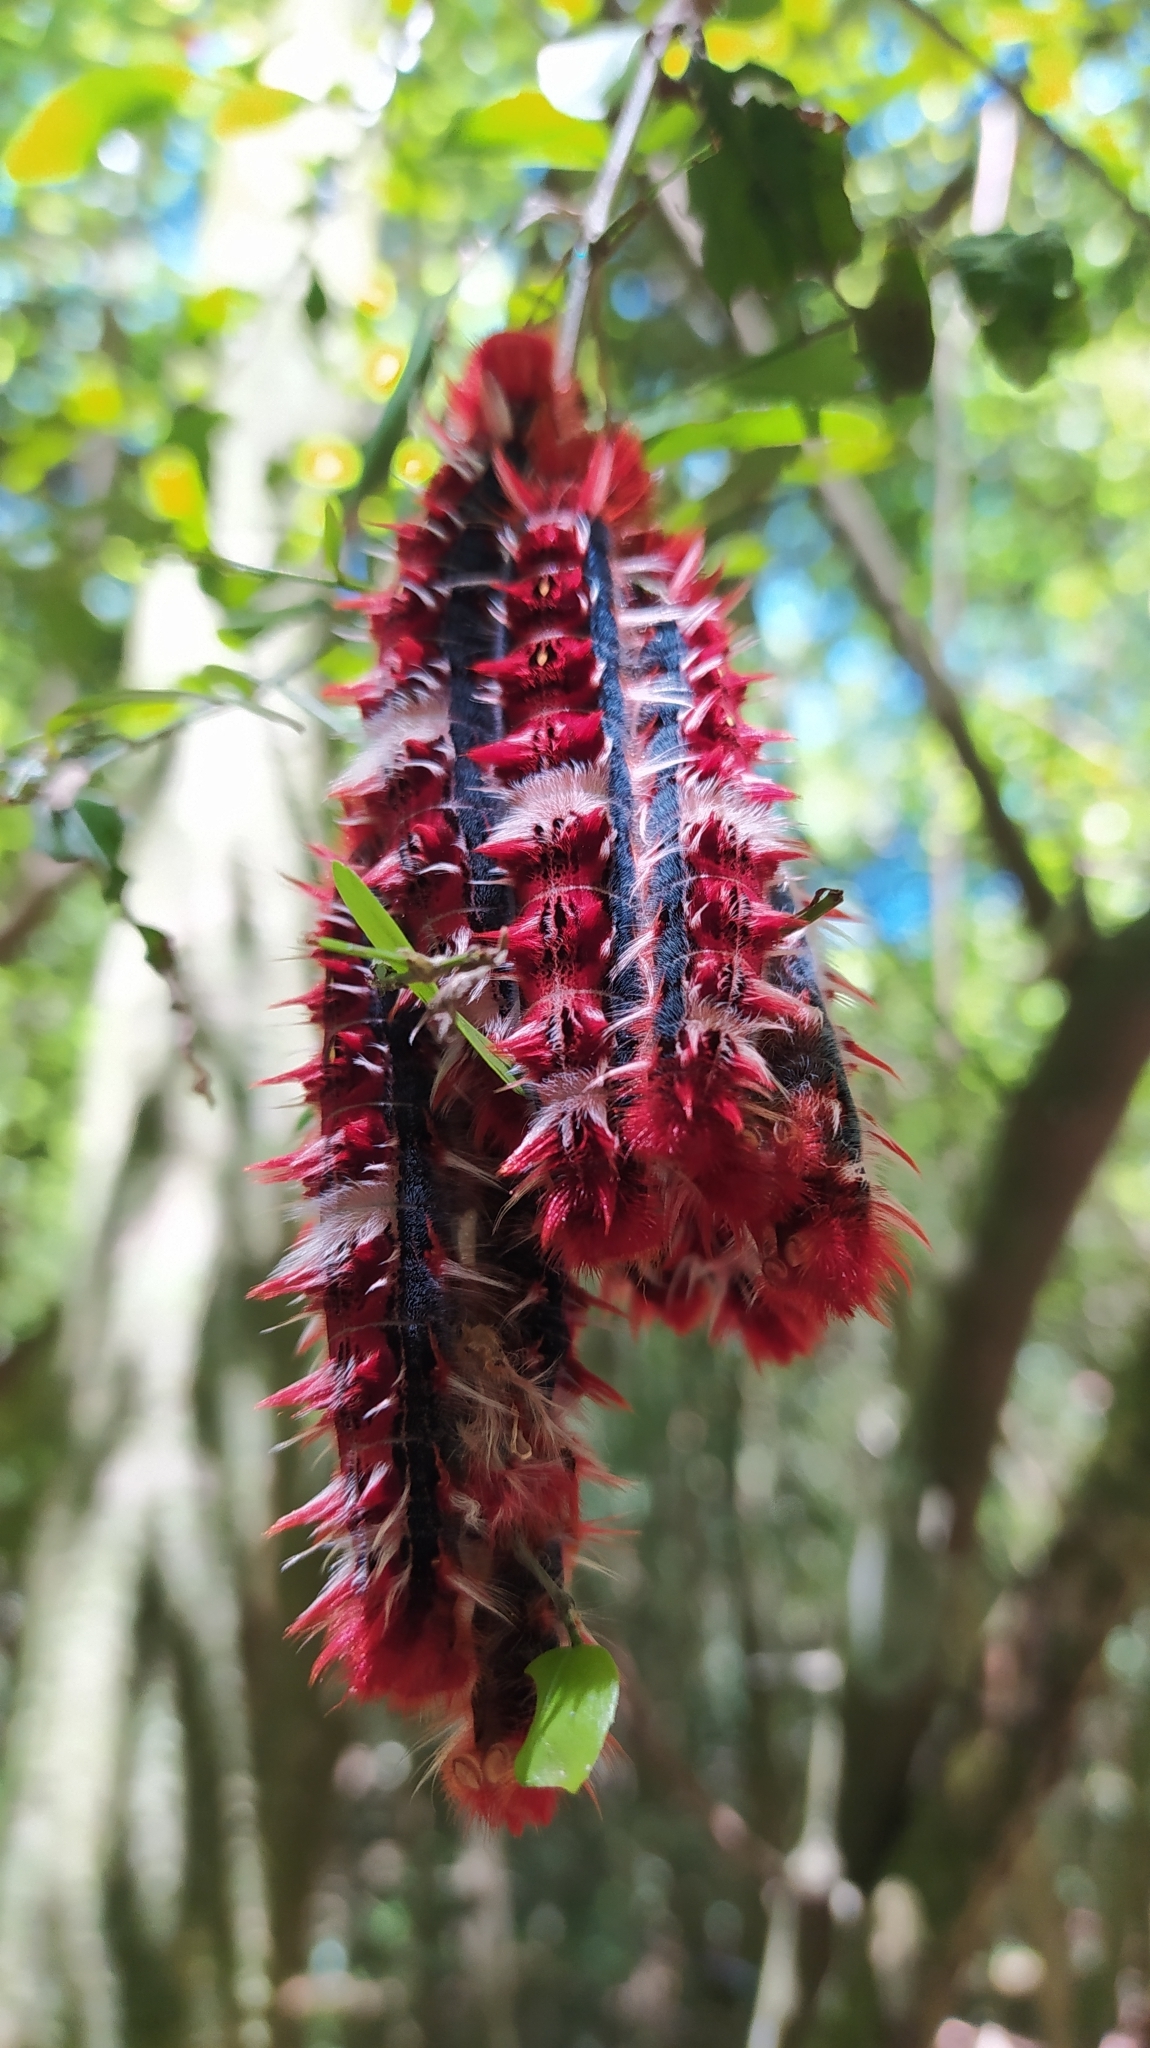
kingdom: Animalia
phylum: Arthropoda
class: Insecta
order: Lepidoptera
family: Nymphalidae
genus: Morpho
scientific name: Morpho epistrophus
